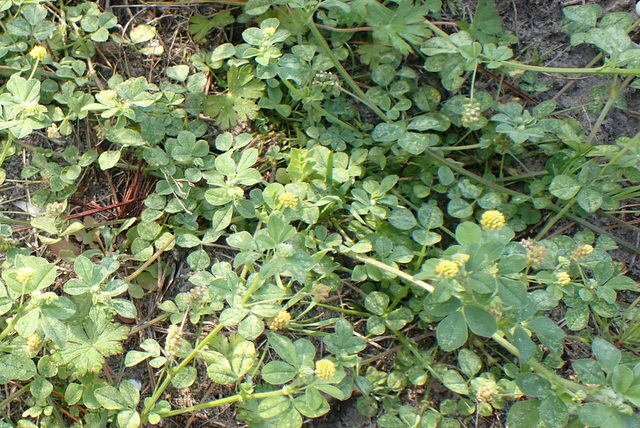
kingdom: Plantae
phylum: Tracheophyta
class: Magnoliopsida
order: Fabales
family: Fabaceae
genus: Medicago
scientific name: Medicago lupulina
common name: Black medick
